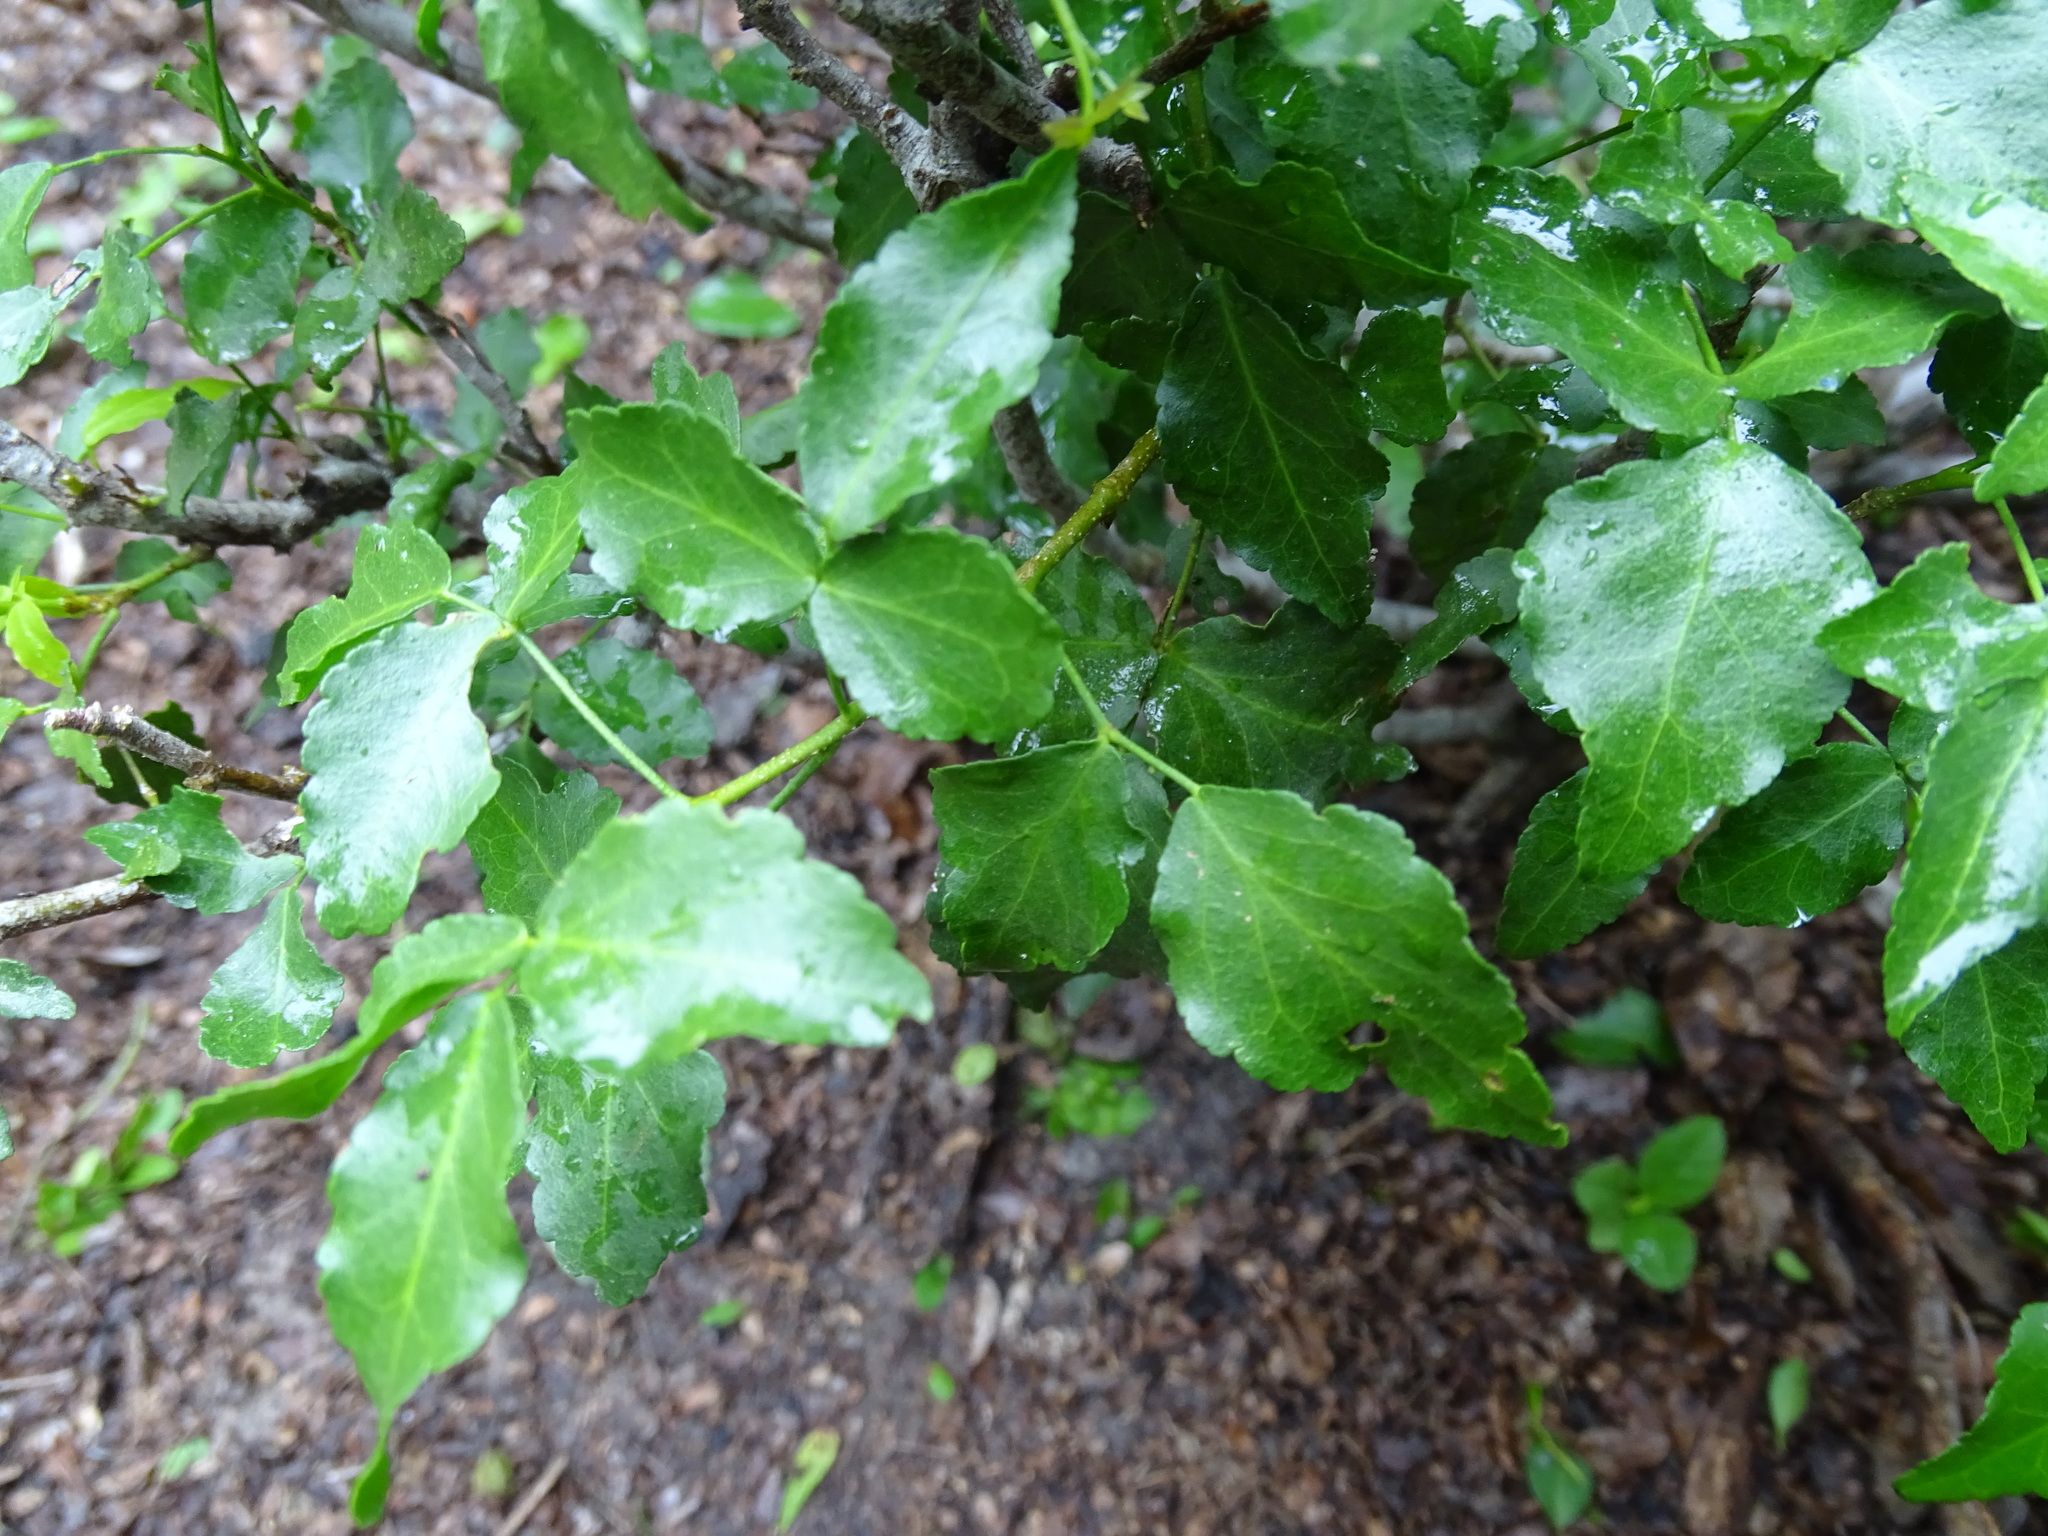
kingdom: Plantae
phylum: Tracheophyta
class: Magnoliopsida
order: Sapindales
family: Rutaceae
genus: Amyris
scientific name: Amyris texana
